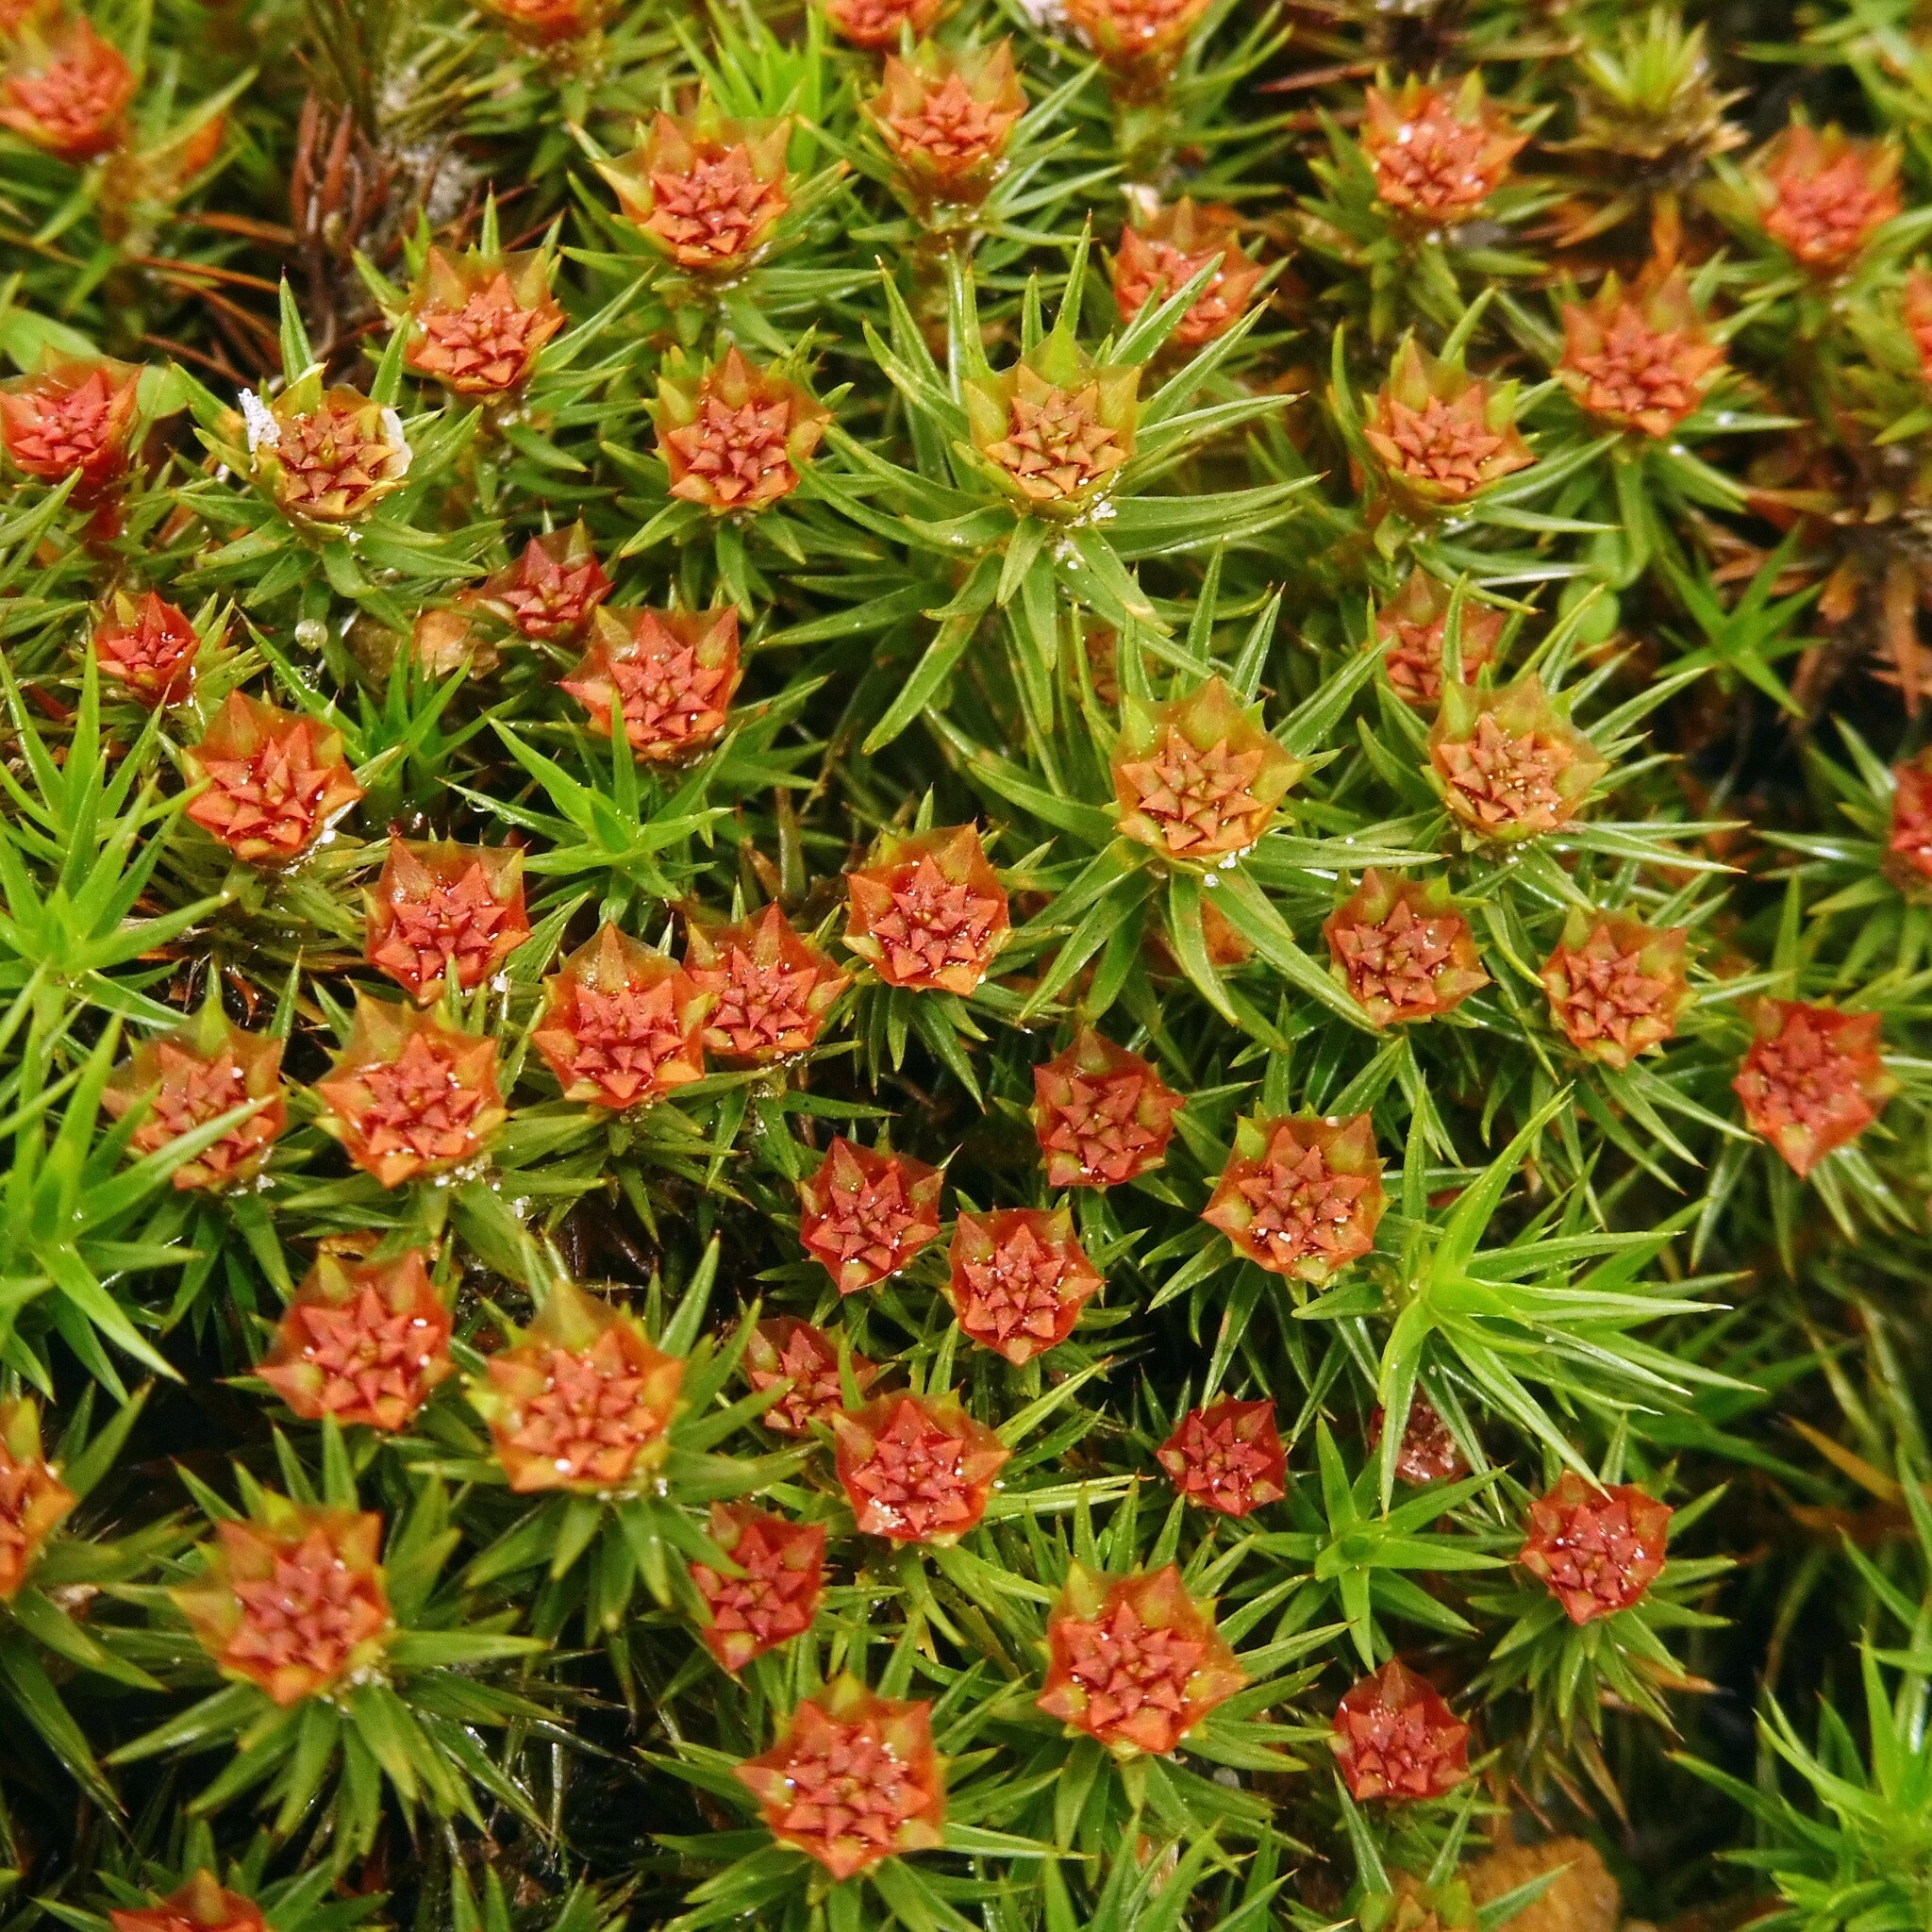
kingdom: Plantae
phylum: Bryophyta
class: Polytrichopsida
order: Polytrichales
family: Polytrichaceae
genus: Polytrichum
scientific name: Polytrichum juniperinum
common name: Juniper haircap moss
